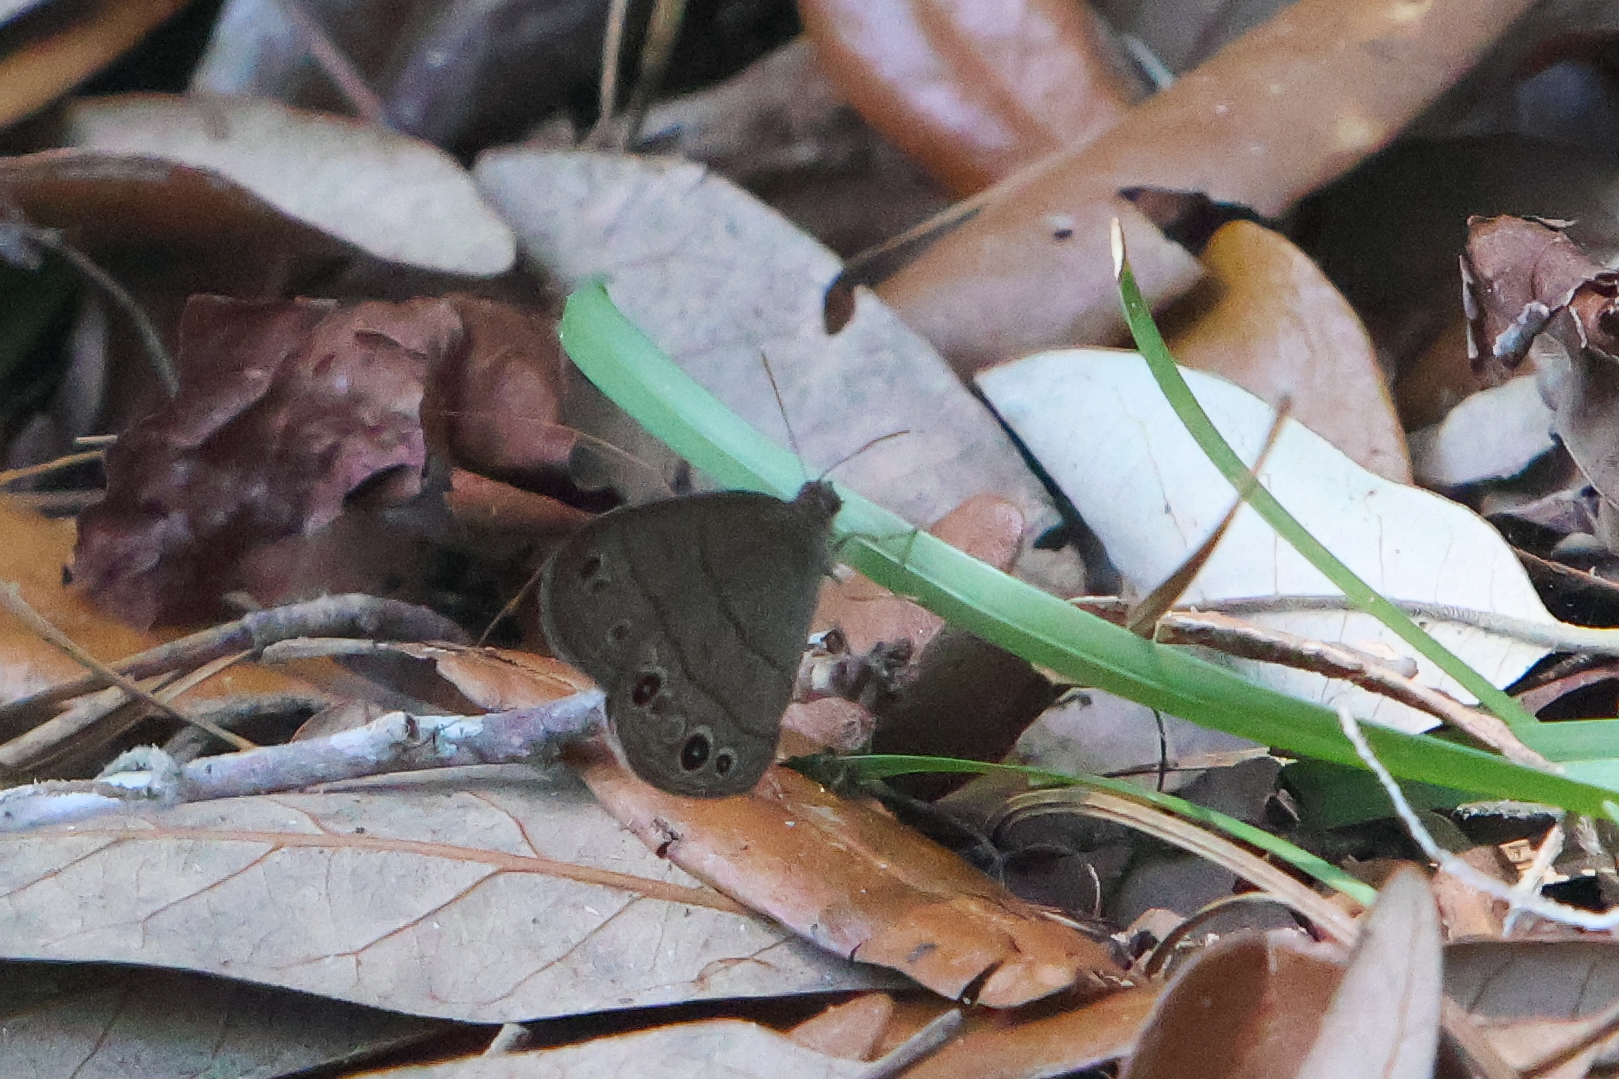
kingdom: Animalia
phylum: Arthropoda
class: Insecta
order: Lepidoptera
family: Nymphalidae
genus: Hermeuptychia
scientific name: Hermeuptychia hermes
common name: Hermes satyr
